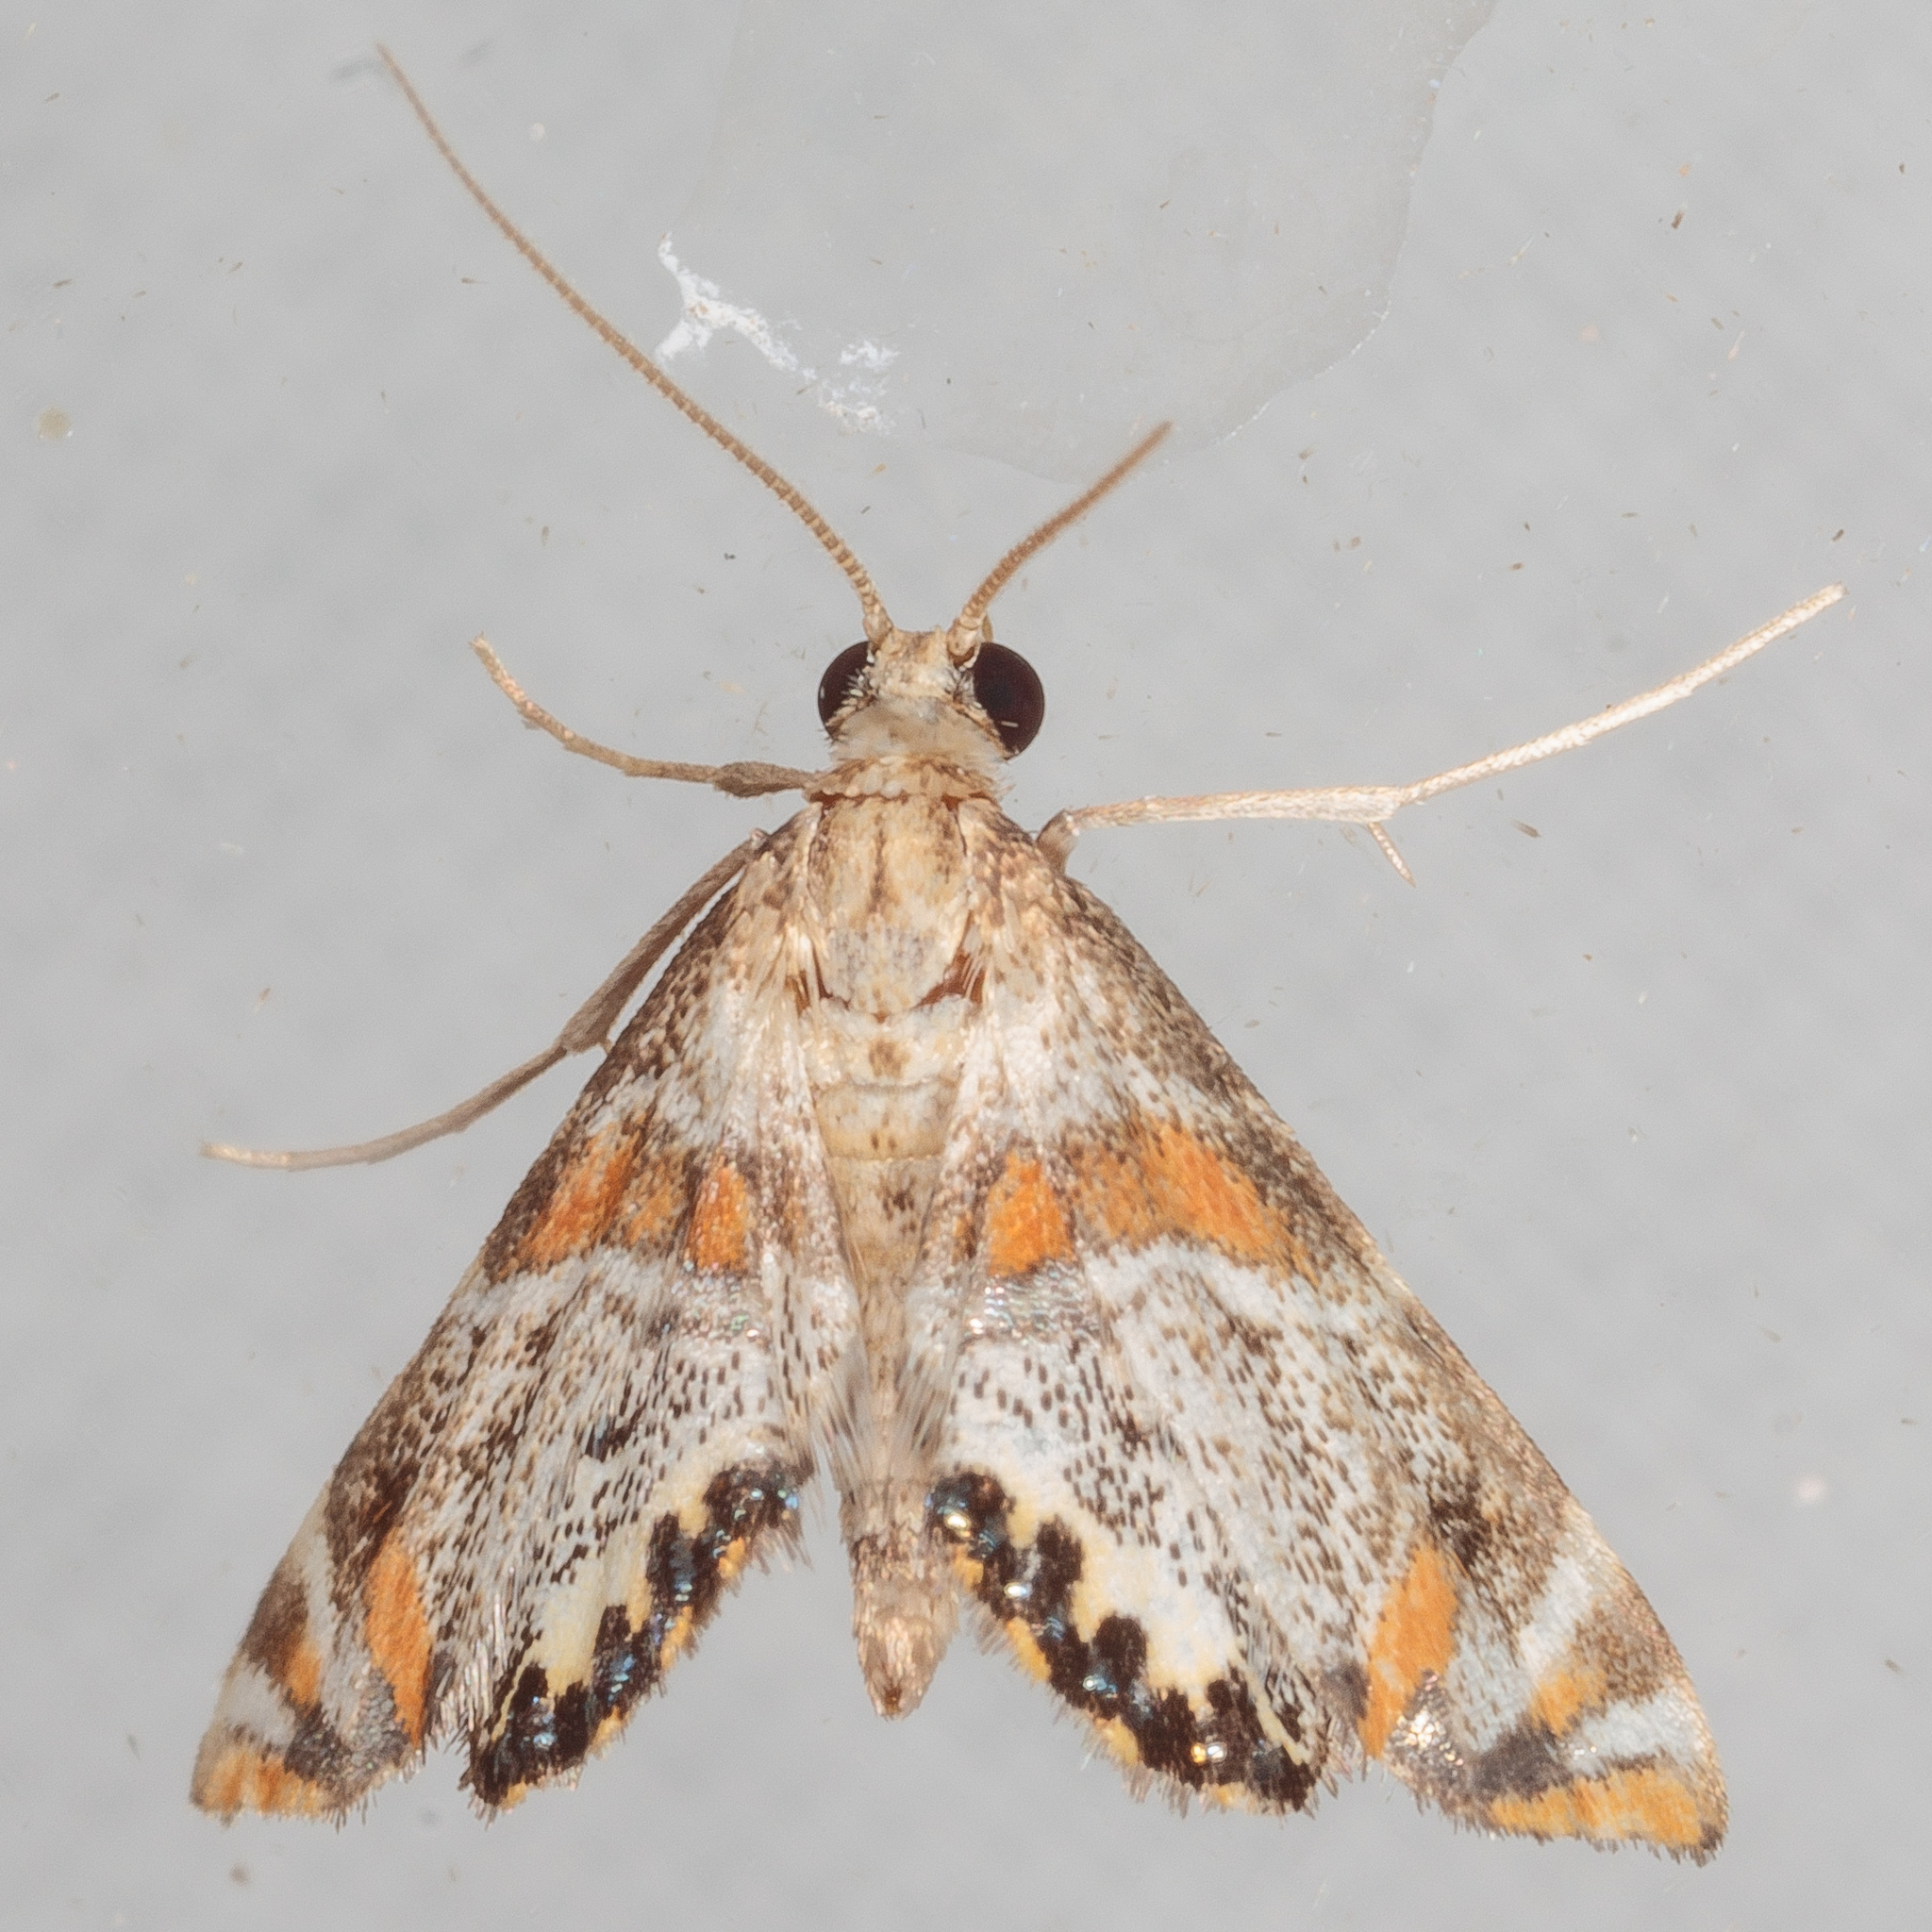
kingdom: Animalia
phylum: Arthropoda
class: Insecta
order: Lepidoptera
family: Crambidae
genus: Petrophila
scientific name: Petrophila jaliscalis
